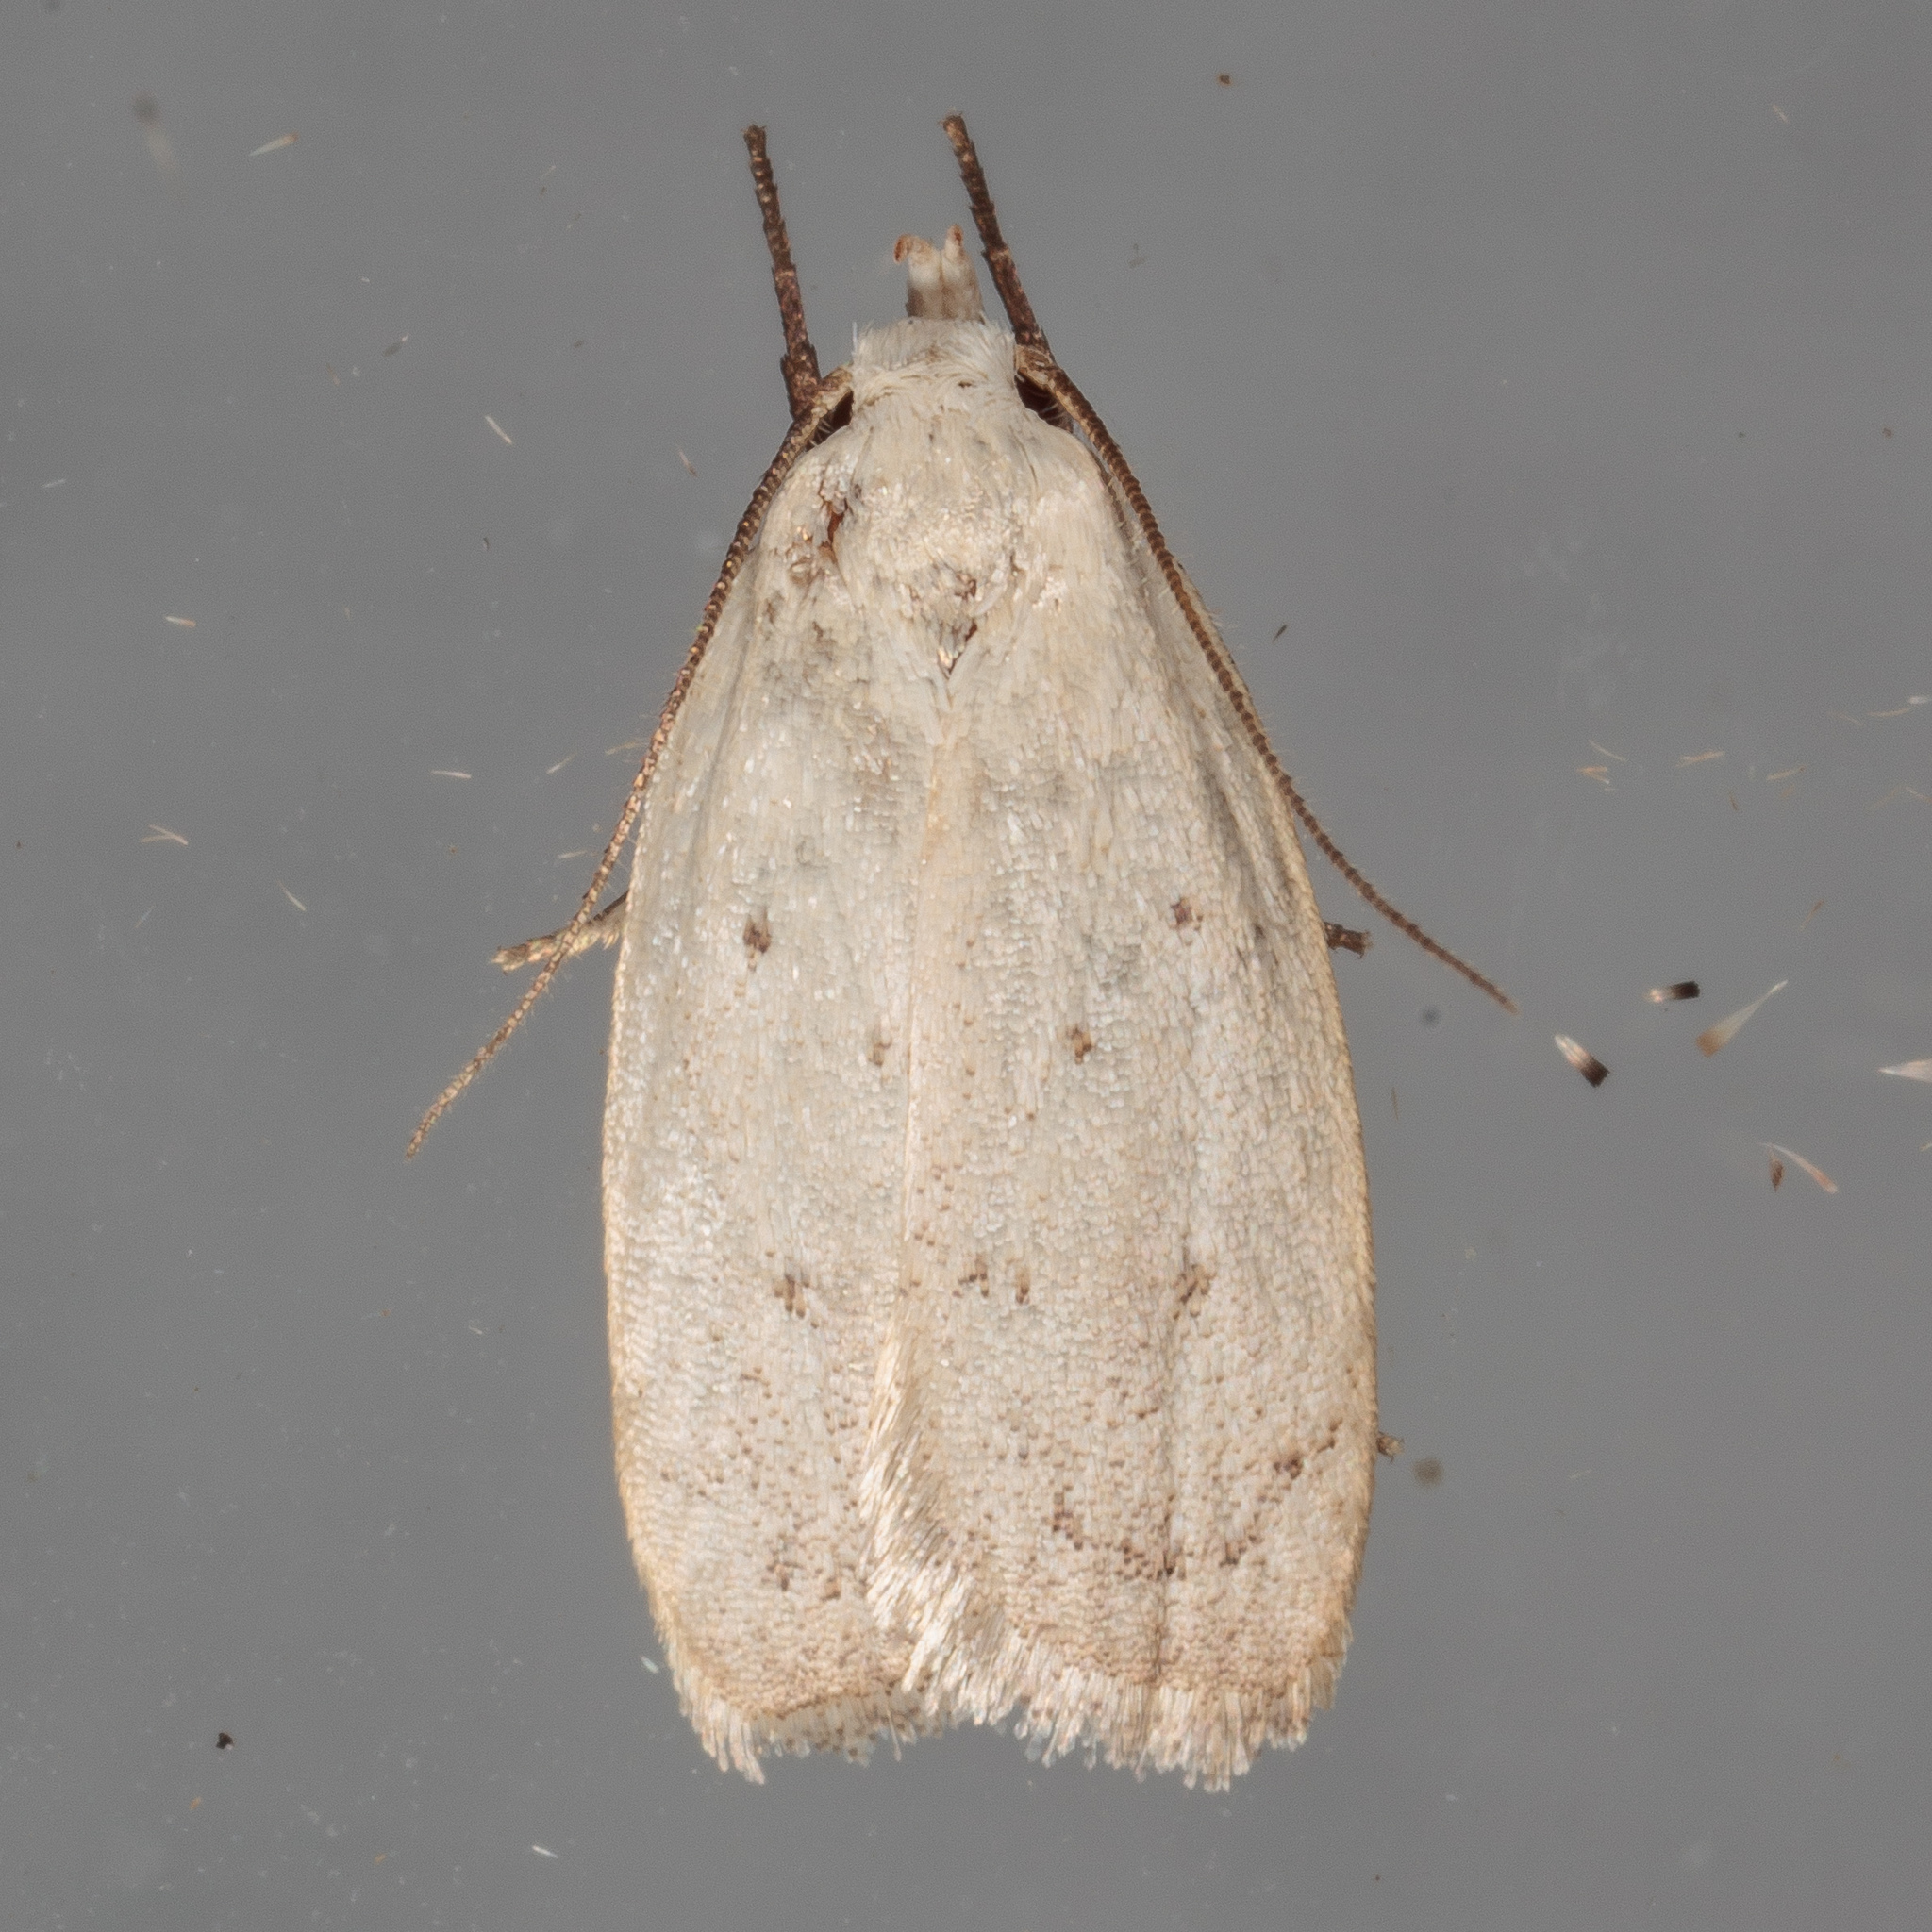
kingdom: Animalia
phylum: Arthropoda
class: Insecta
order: Lepidoptera
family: Oecophoridae
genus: Inga
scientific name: Inga cretacea
